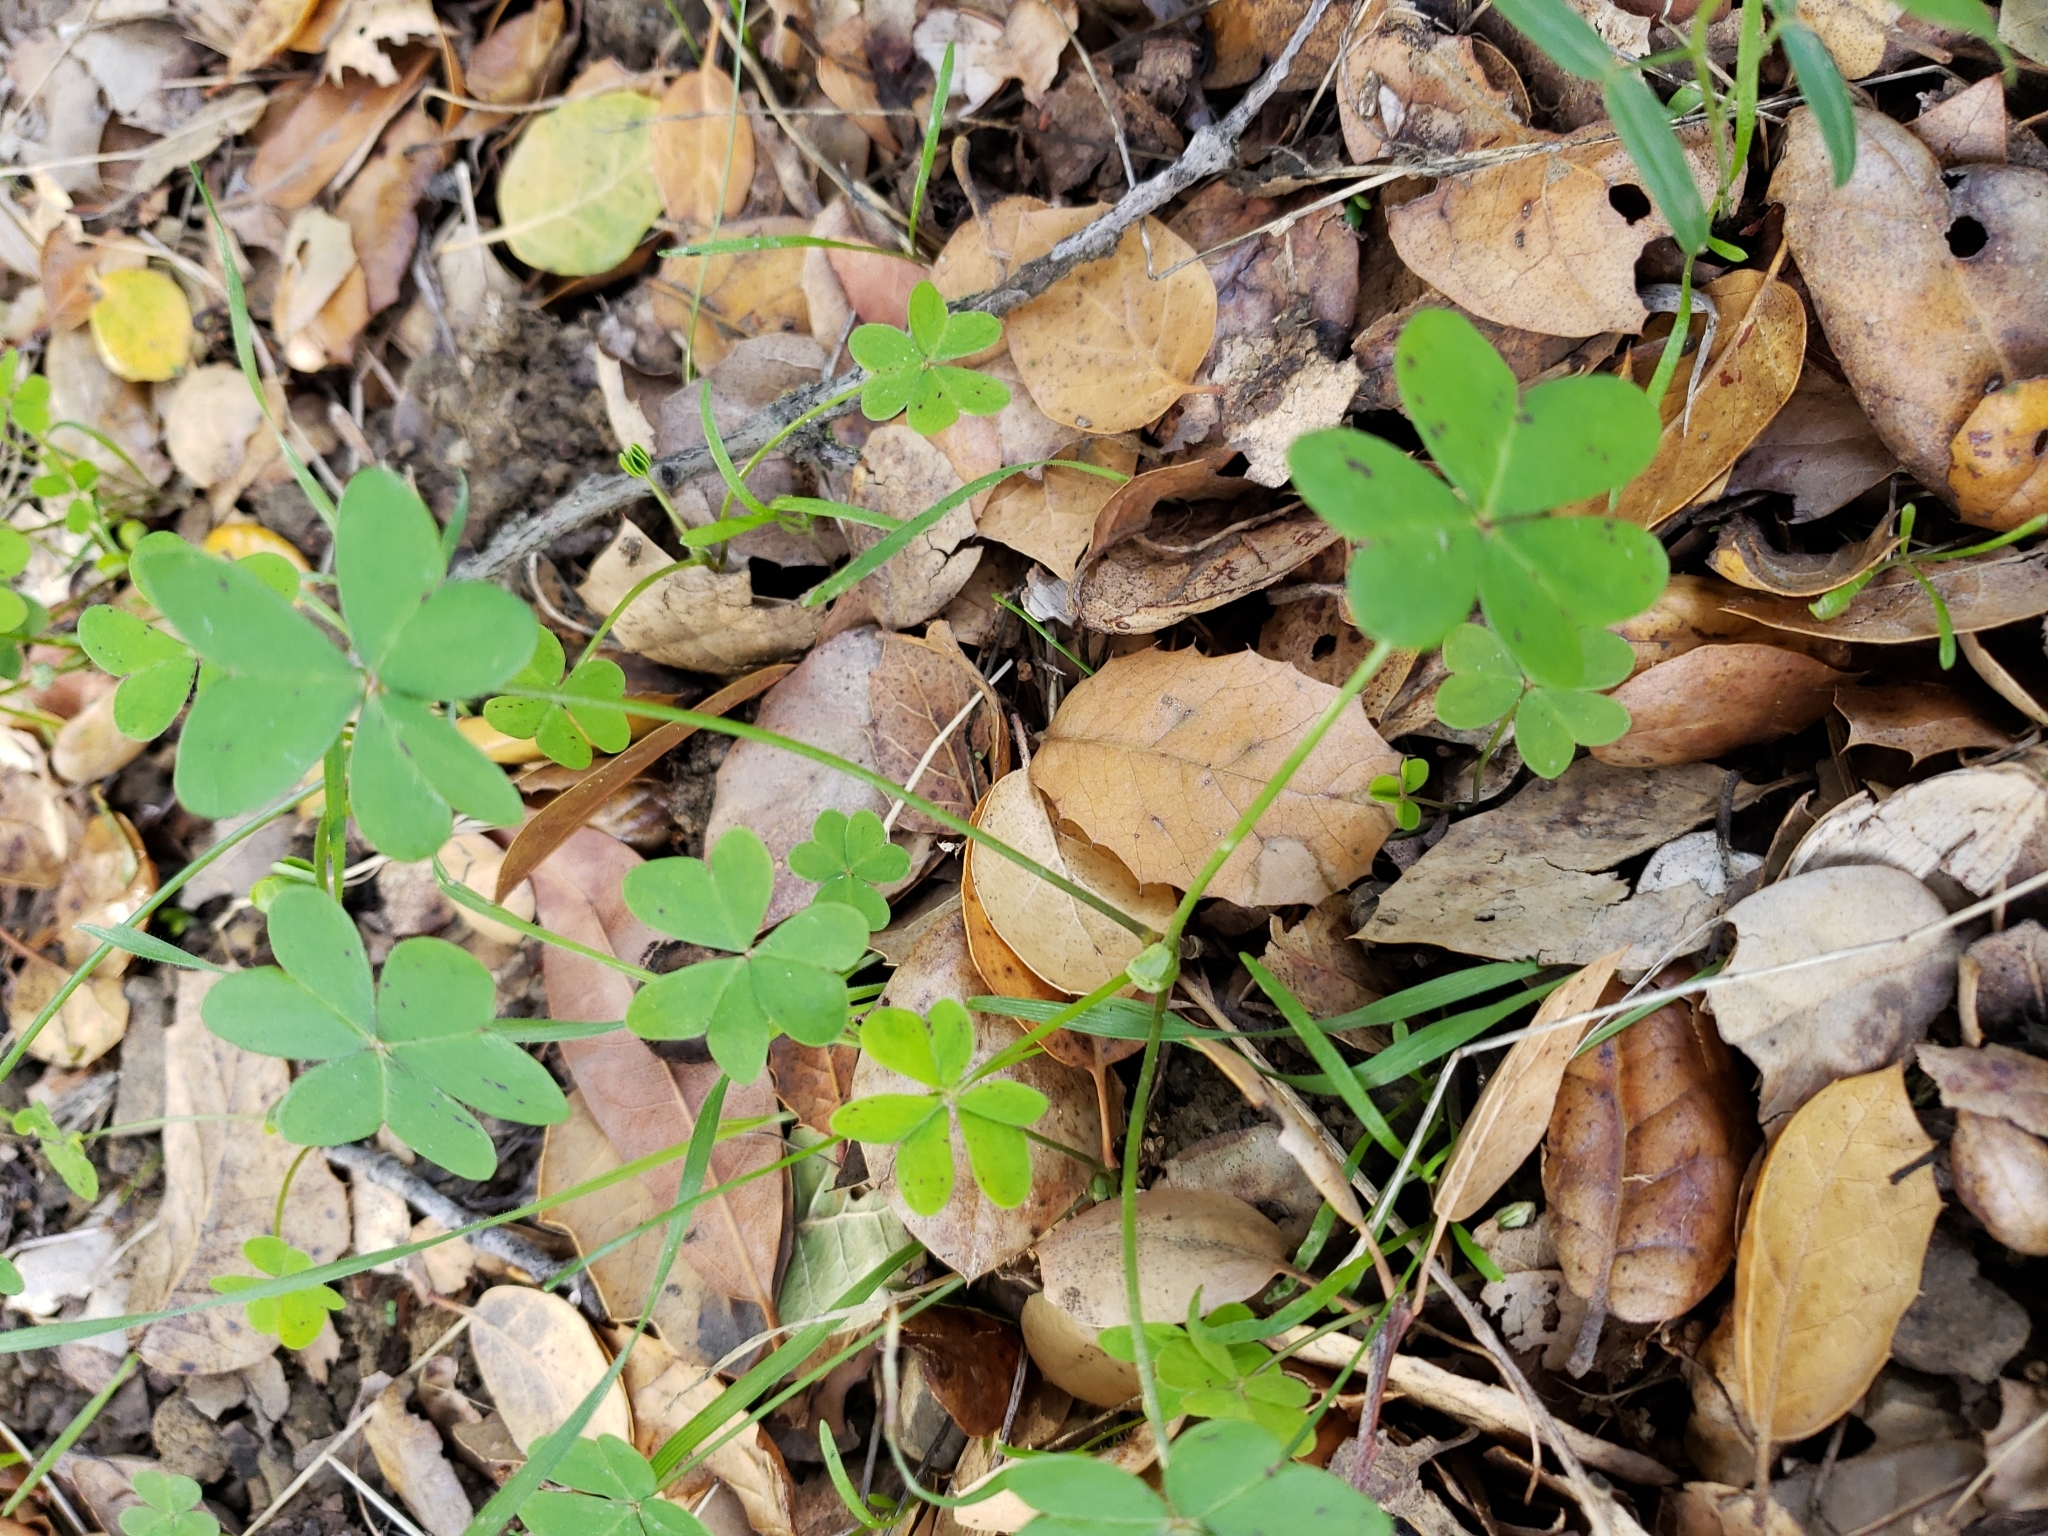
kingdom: Plantae
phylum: Tracheophyta
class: Magnoliopsida
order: Oxalidales
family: Oxalidaceae
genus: Oxalis
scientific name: Oxalis pes-caprae
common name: Bermuda-buttercup
